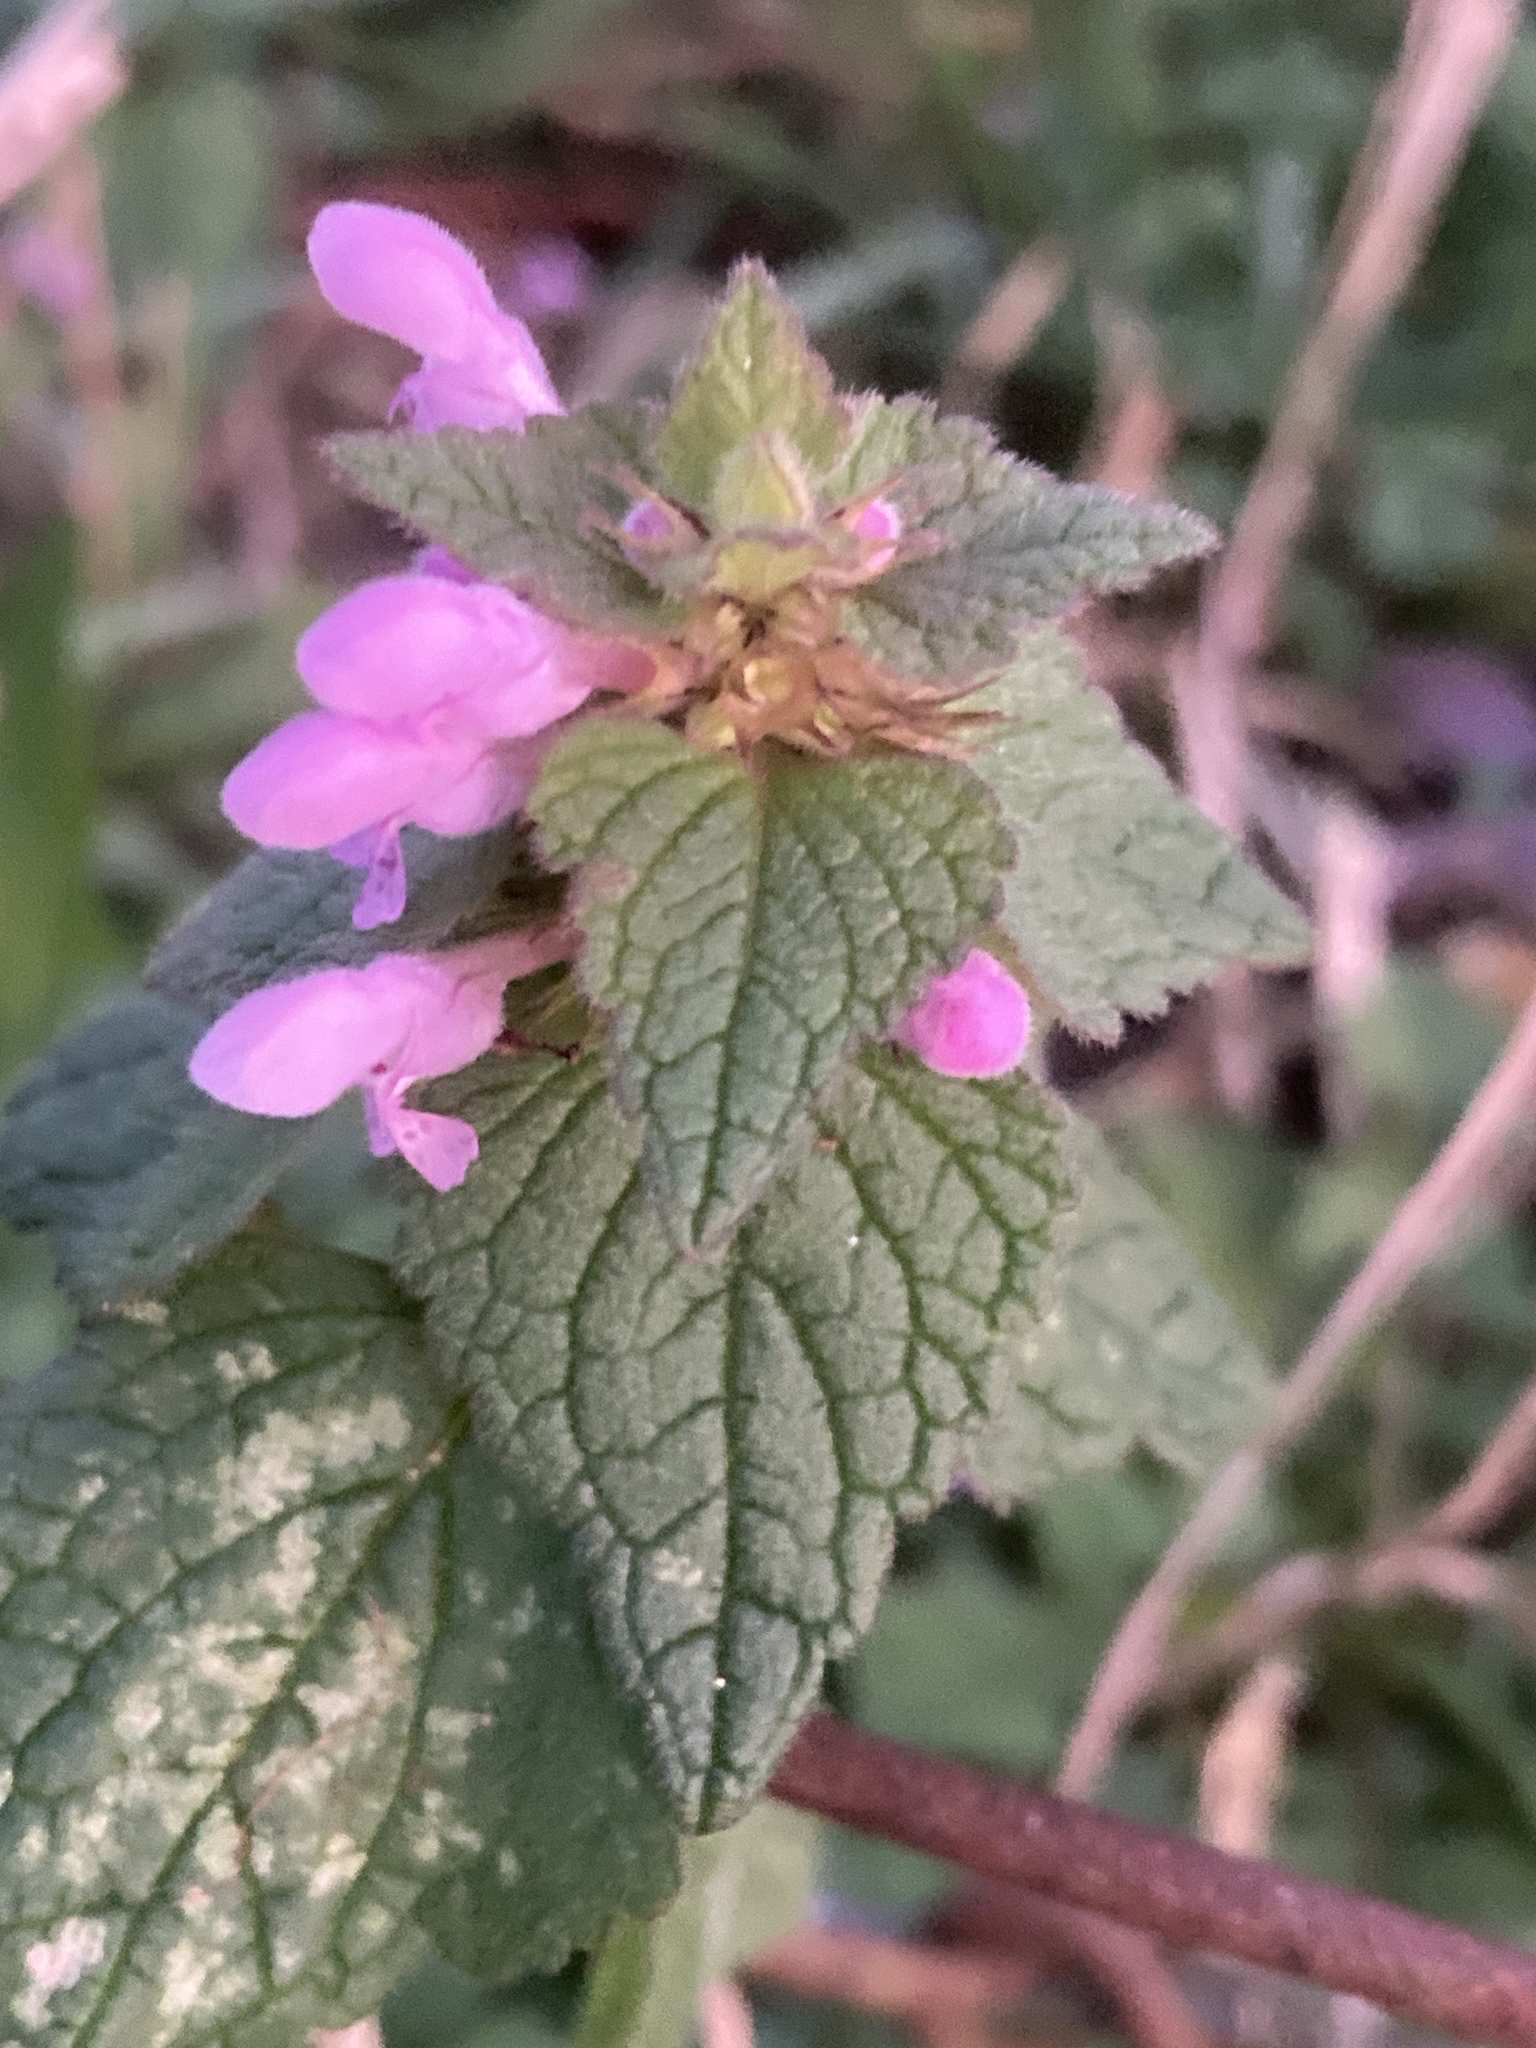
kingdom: Plantae
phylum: Tracheophyta
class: Magnoliopsida
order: Lamiales
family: Lamiaceae
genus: Lamium
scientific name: Lamium purpureum
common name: Red dead-nettle
